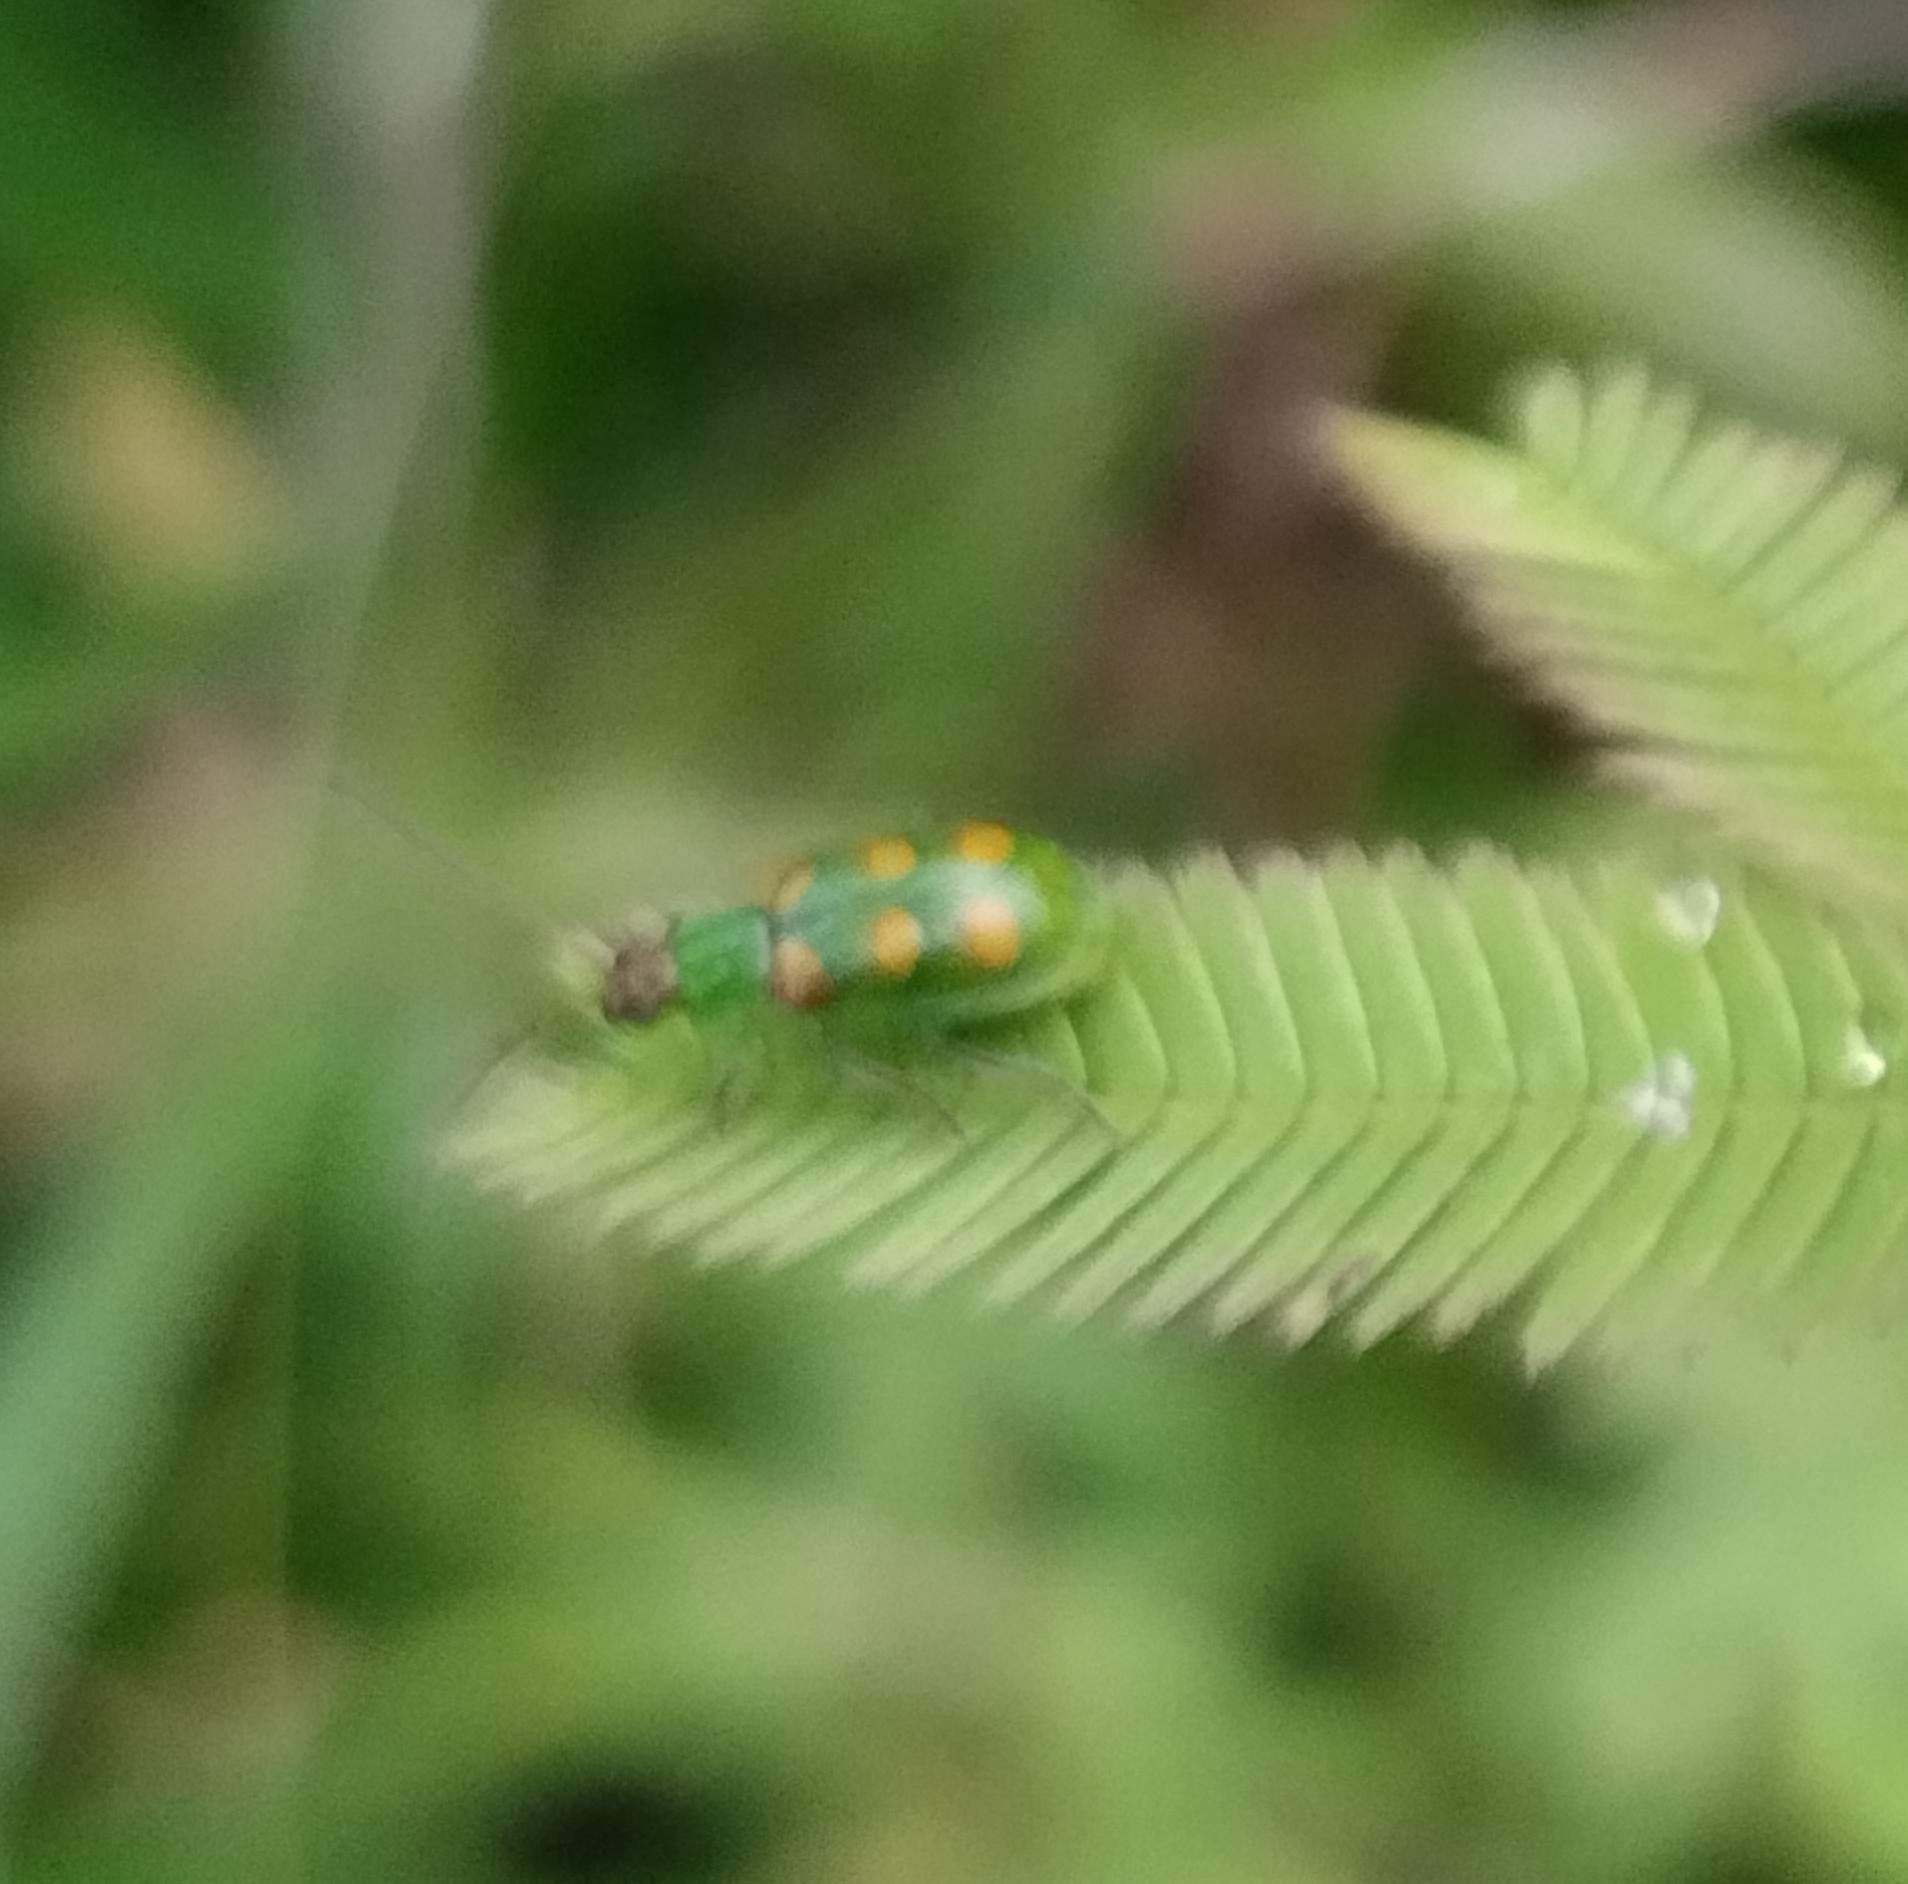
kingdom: Animalia
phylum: Arthropoda
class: Insecta
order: Coleoptera
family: Chrysomelidae
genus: Diabrotica
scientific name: Diabrotica speciosa
